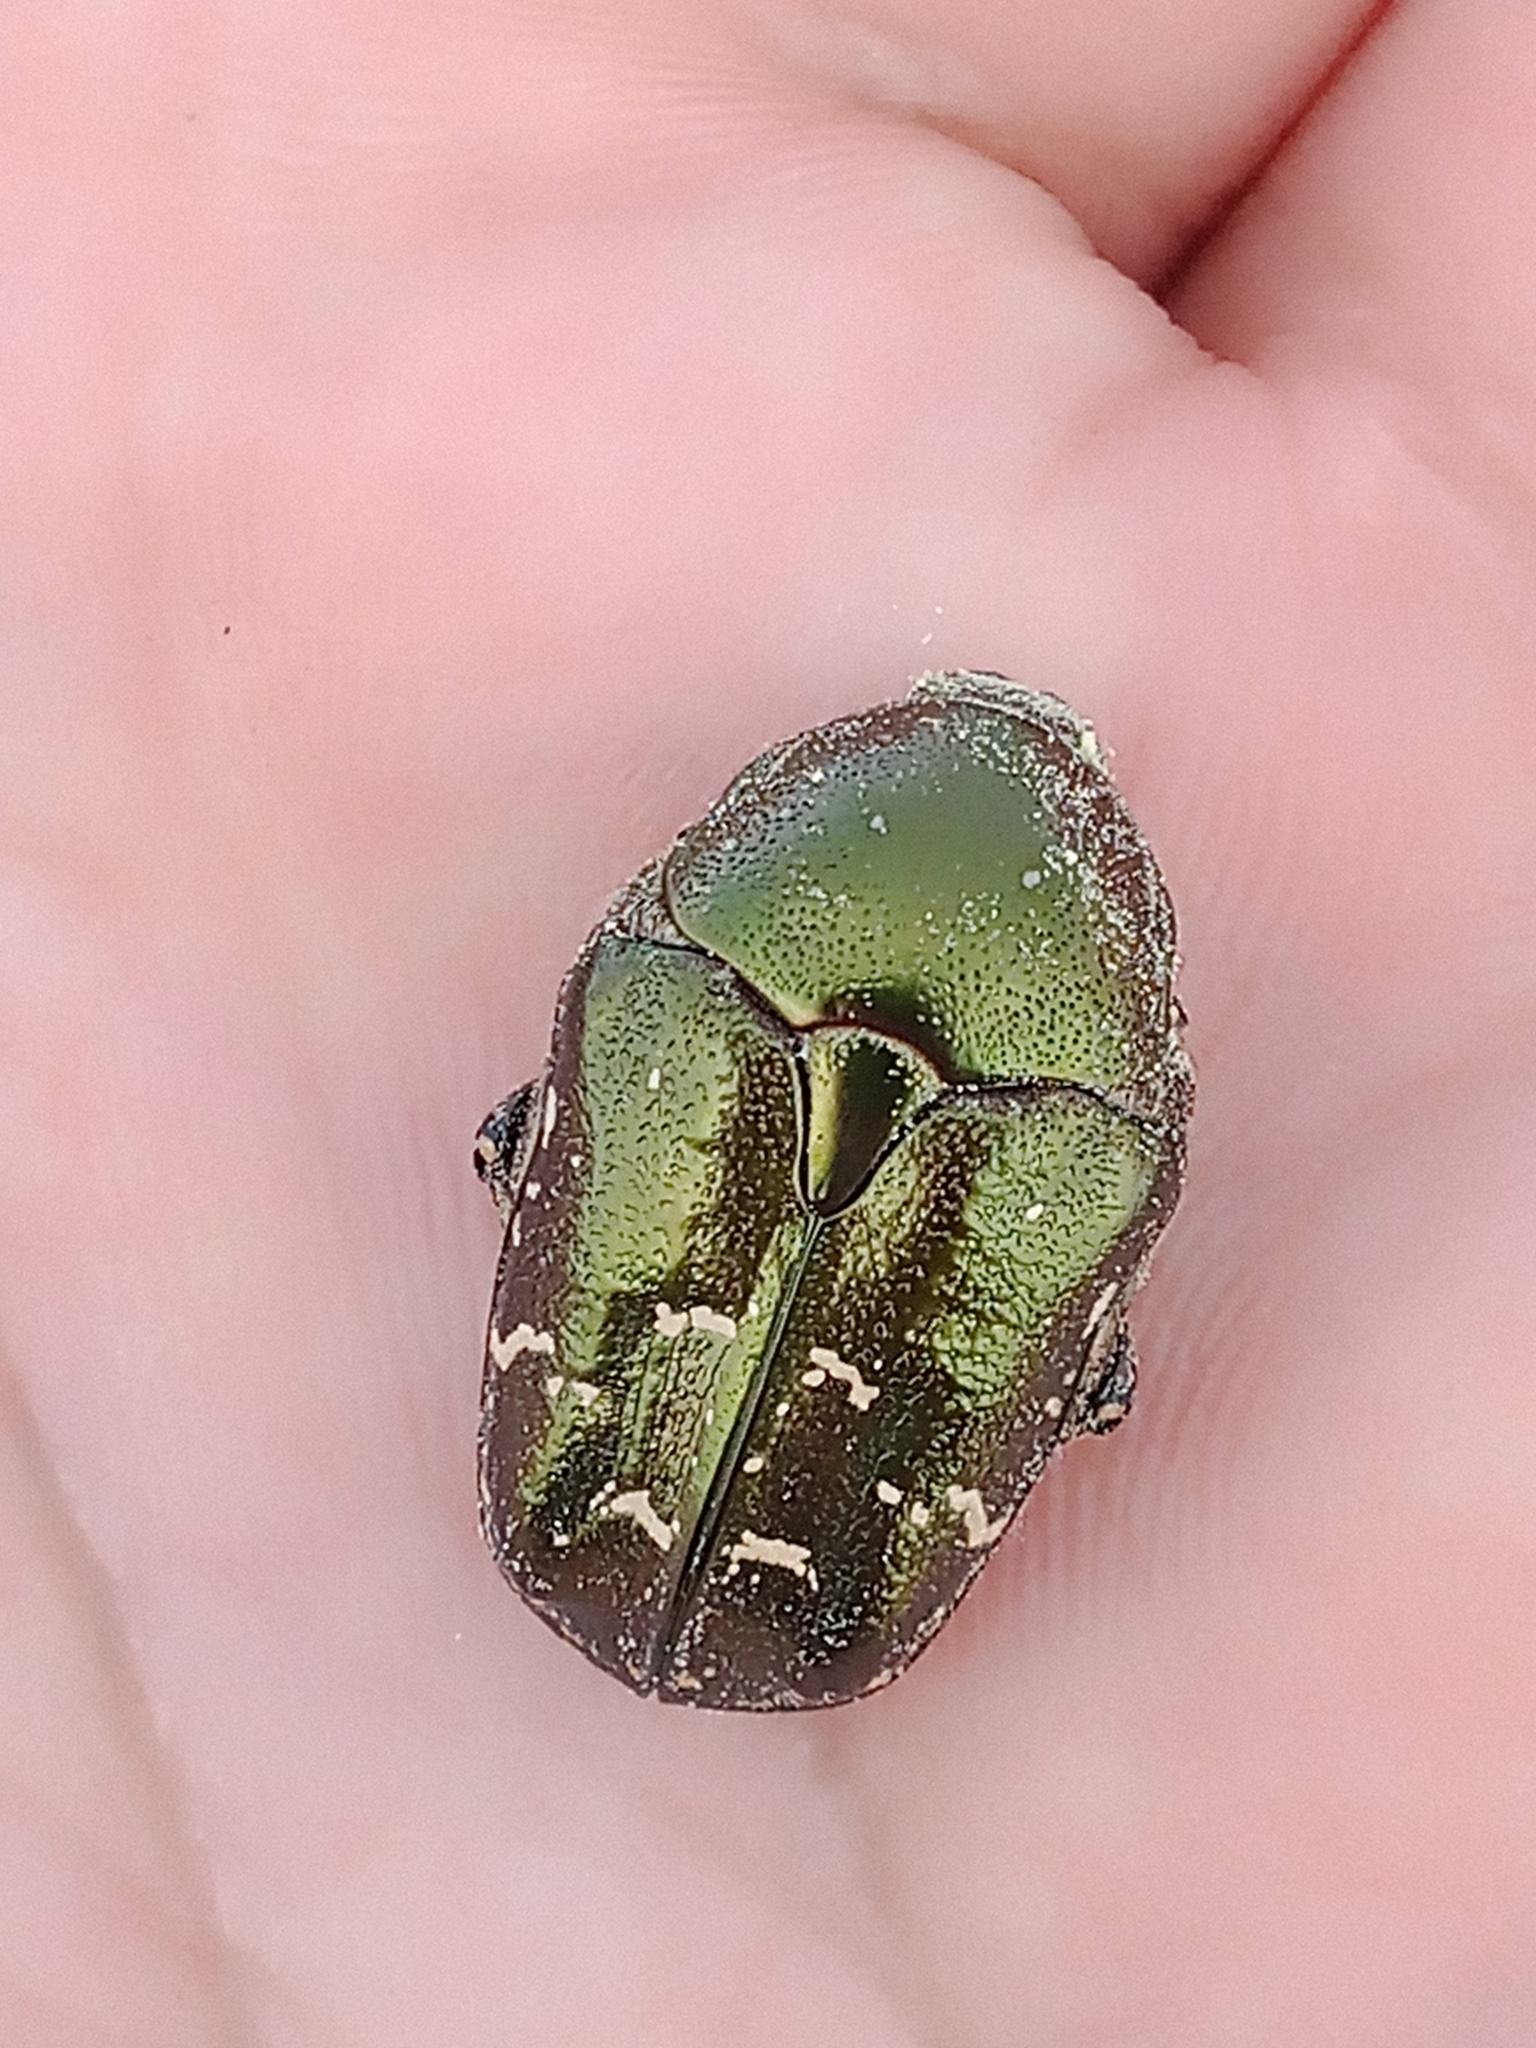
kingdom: Animalia
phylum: Arthropoda
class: Insecta
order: Coleoptera
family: Scarabaeidae
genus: Protaetia
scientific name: Protaetia cuprea
